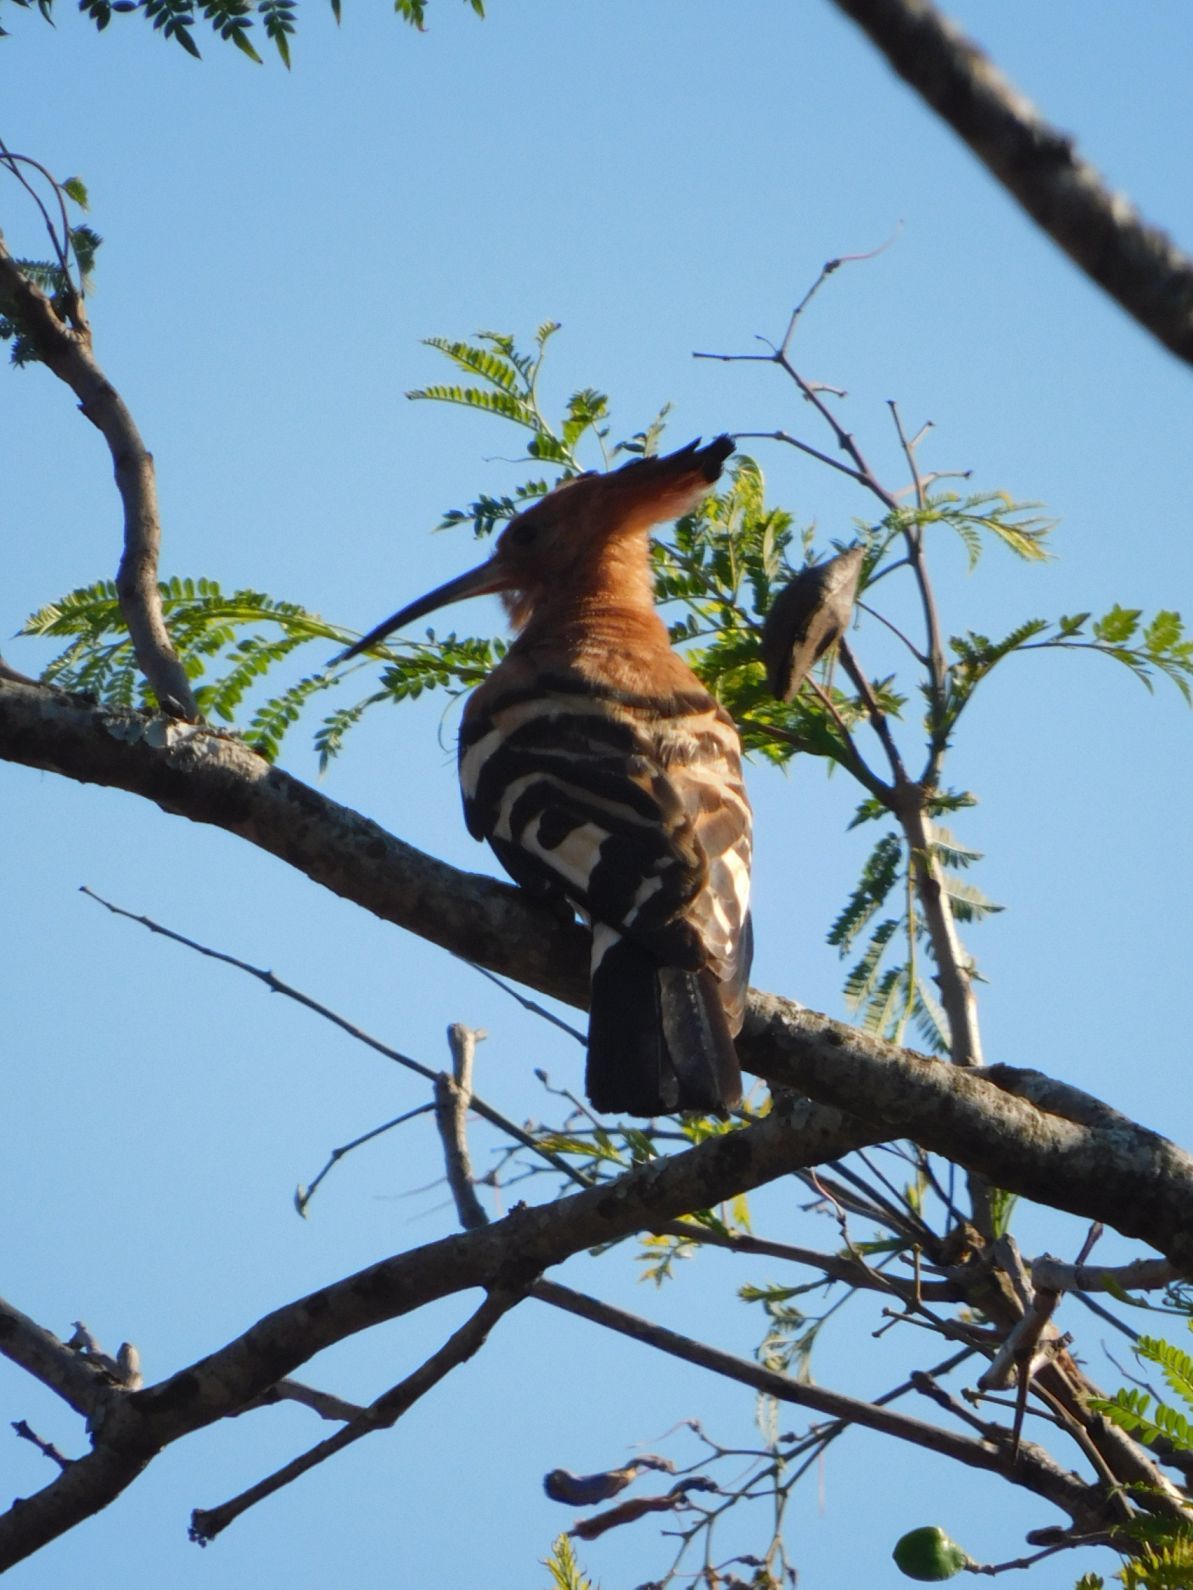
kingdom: Animalia
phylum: Chordata
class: Aves
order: Bucerotiformes
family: Upupidae
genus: Upupa
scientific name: Upupa africana
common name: African hoopoe
